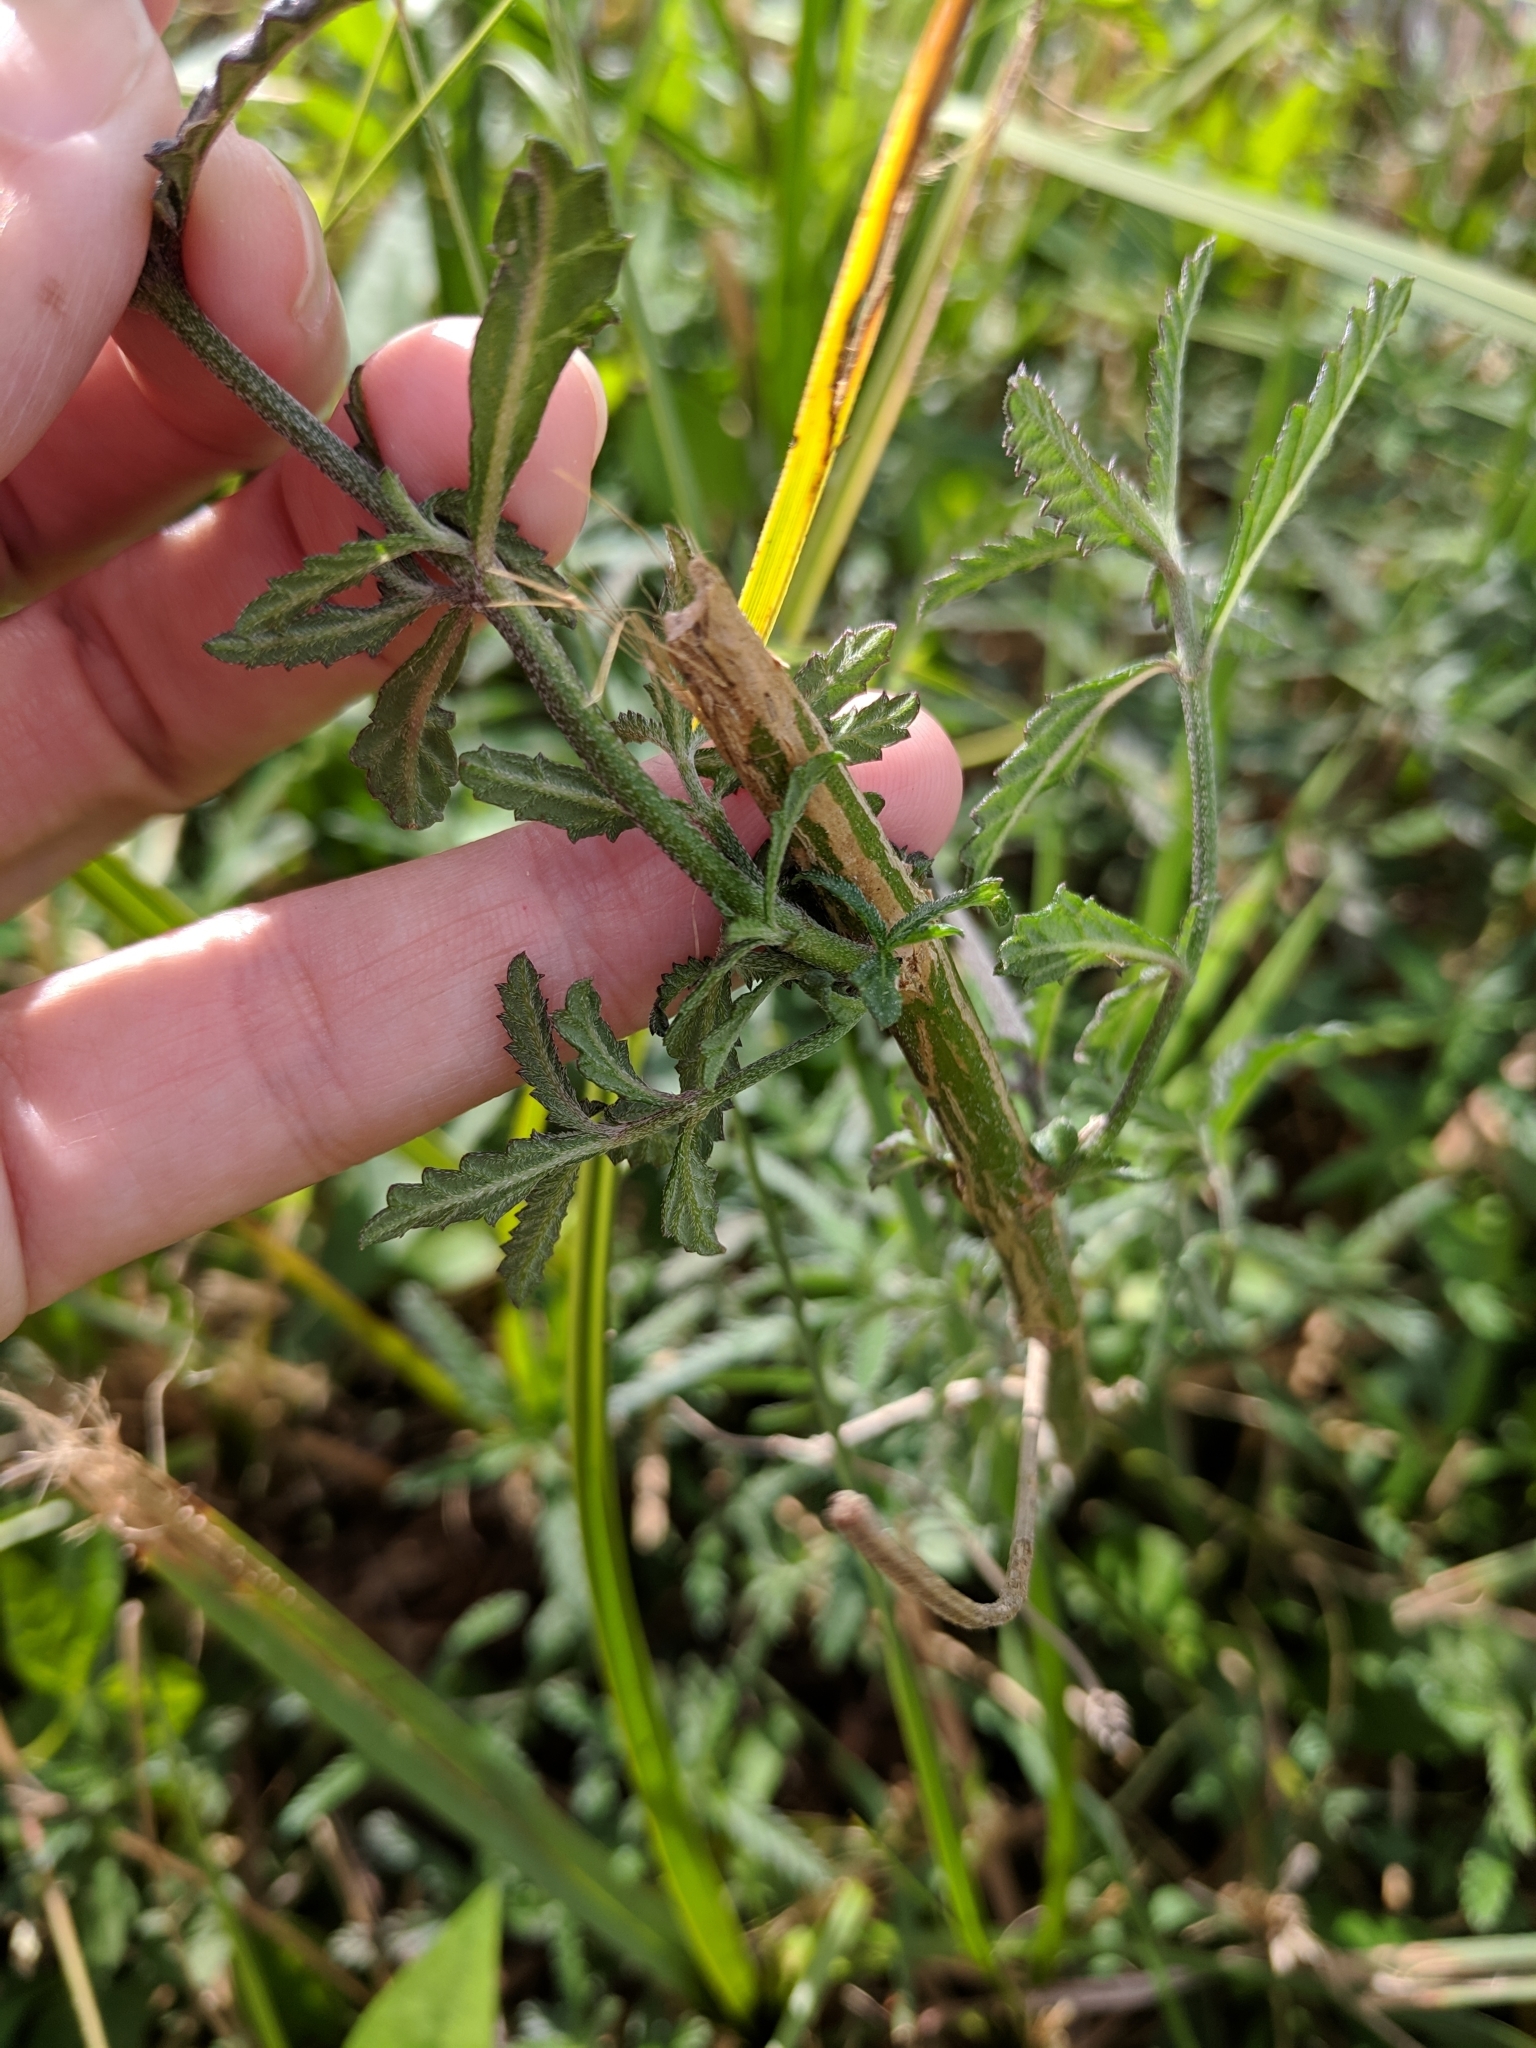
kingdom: Plantae
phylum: Tracheophyta
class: Magnoliopsida
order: Lamiales
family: Verbenaceae
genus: Lippia
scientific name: Lippia stoechadifolia
